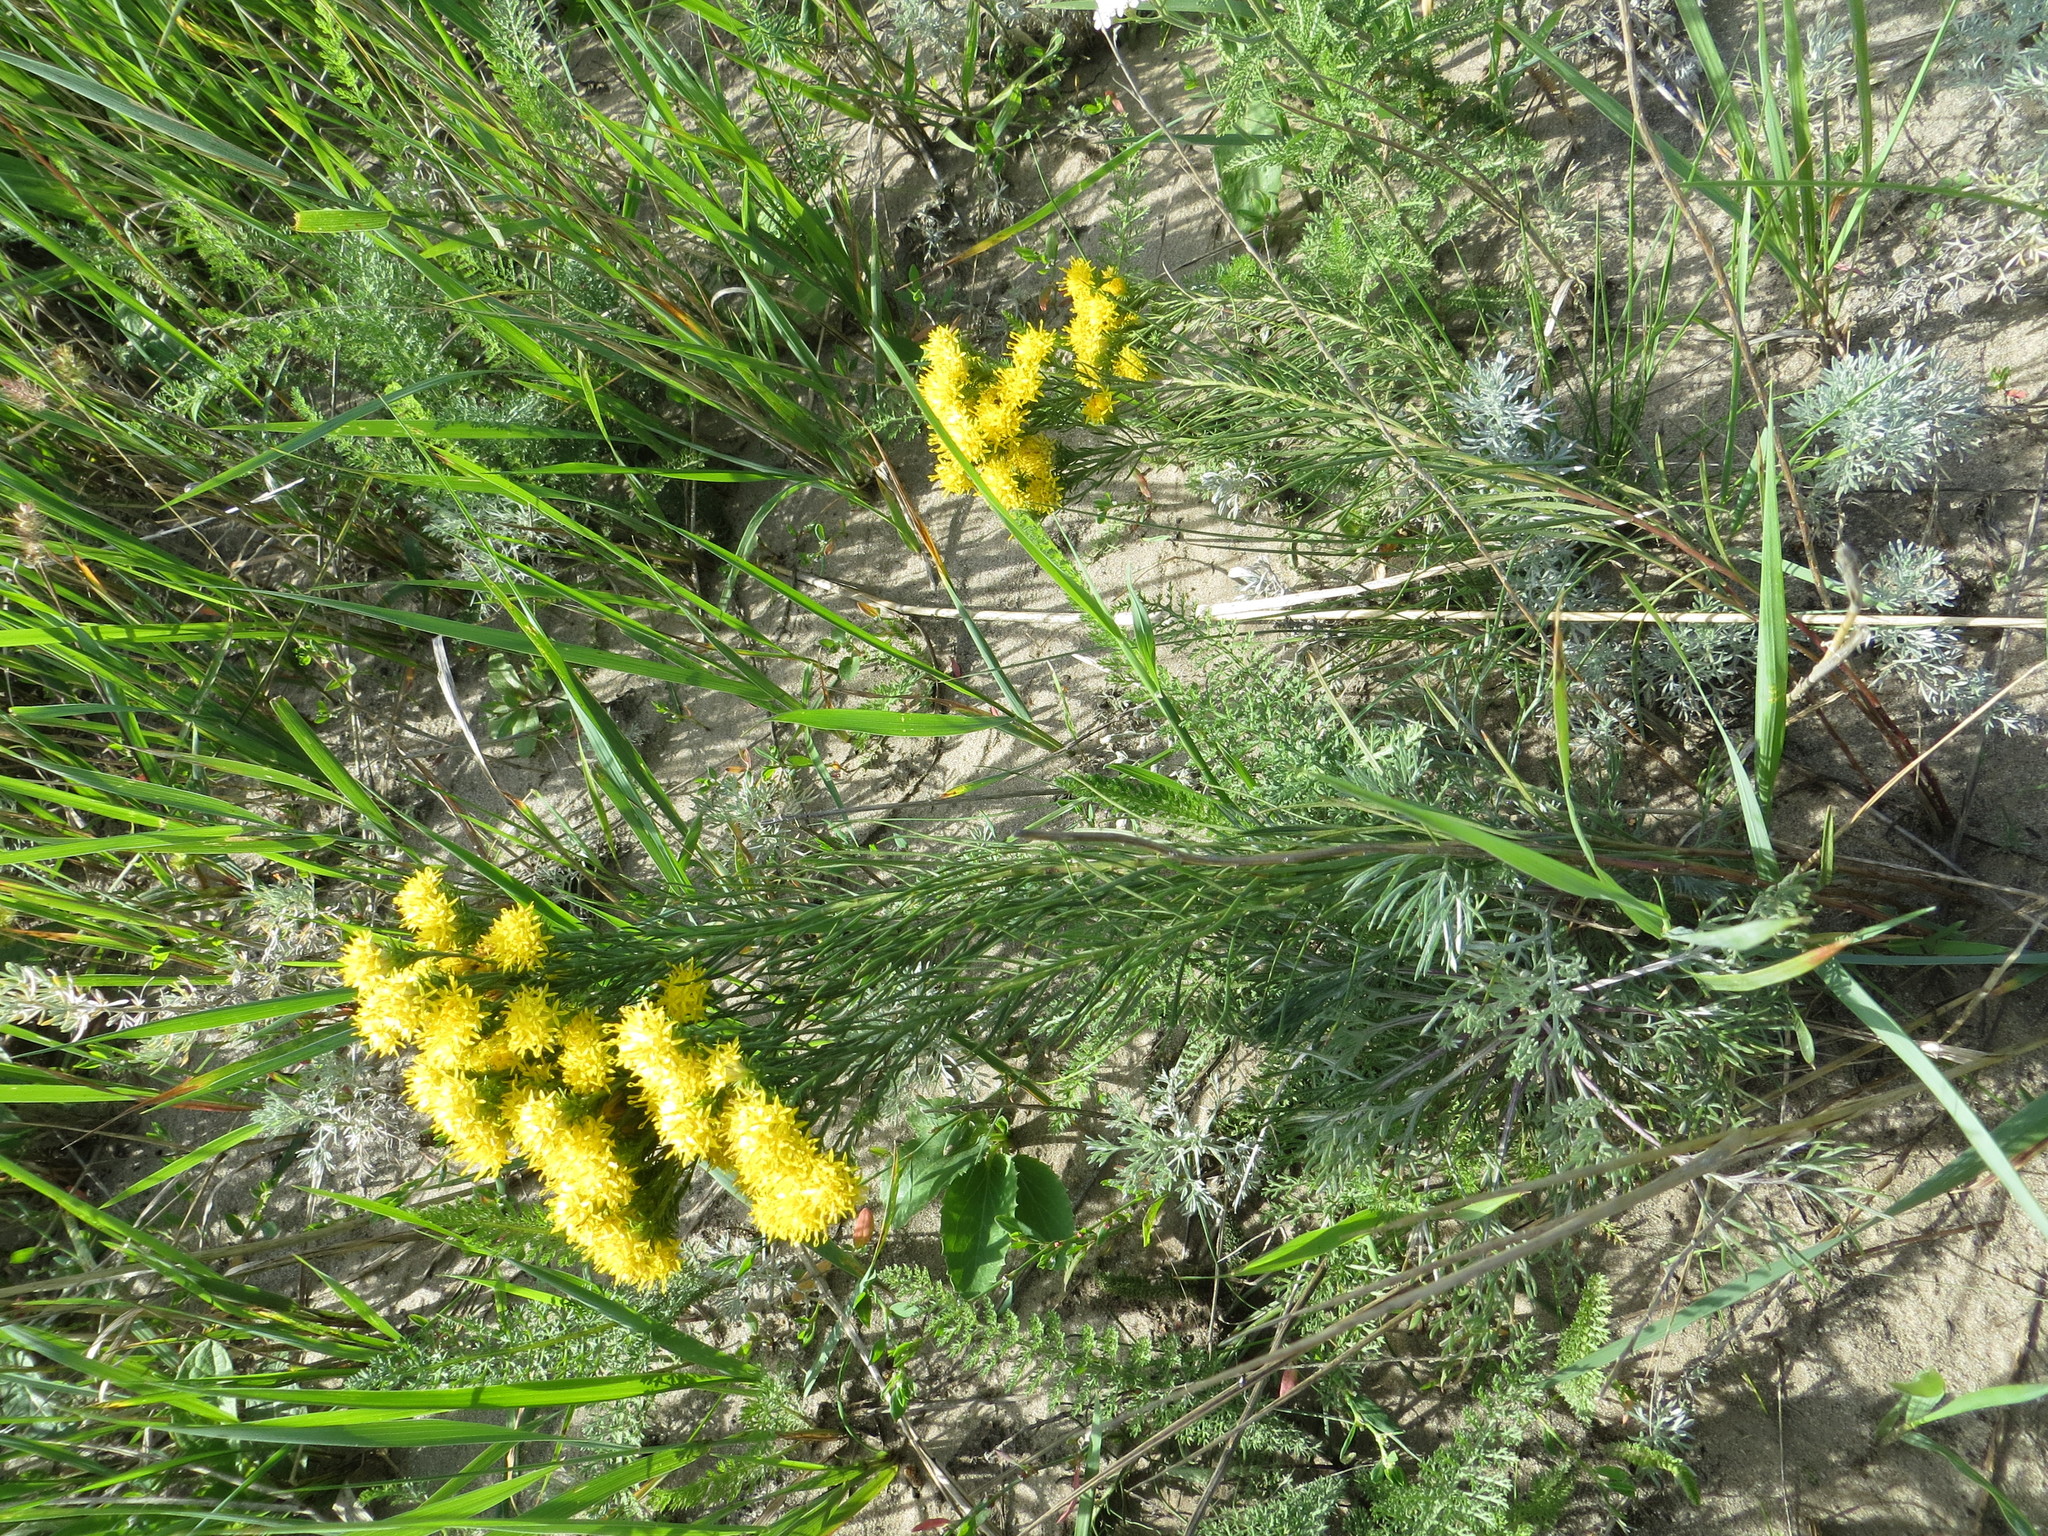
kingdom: Plantae
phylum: Tracheophyta
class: Magnoliopsida
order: Asterales
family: Asteraceae
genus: Galatella
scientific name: Galatella linosyris
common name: Goldilocks aster
